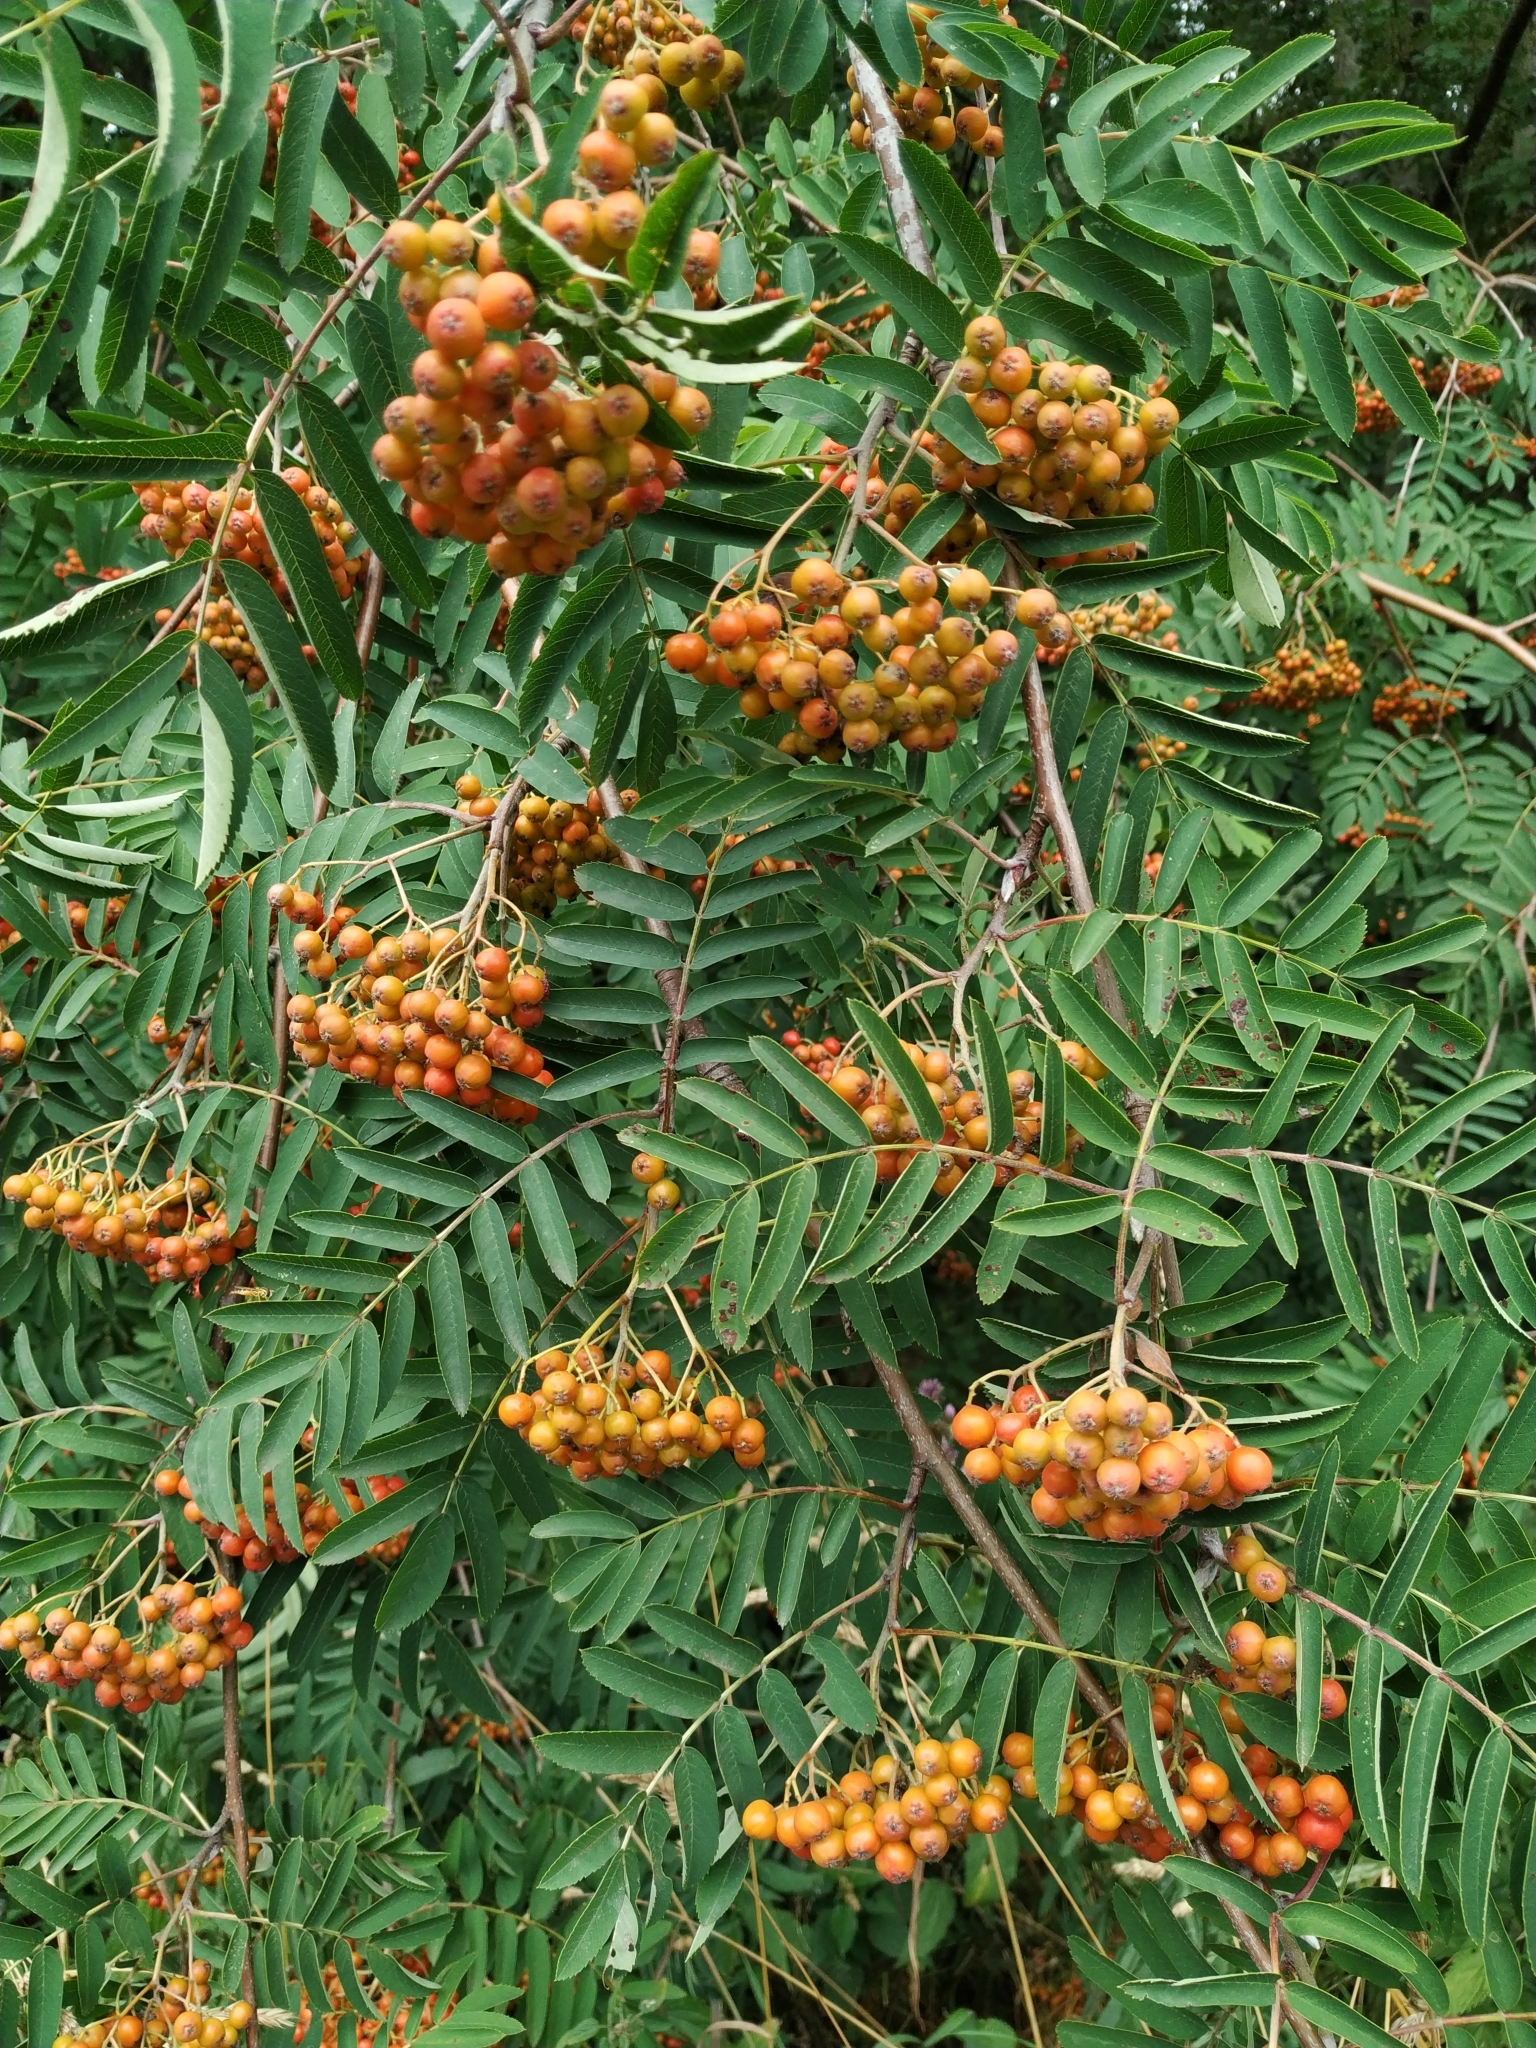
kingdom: Plantae
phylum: Tracheophyta
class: Magnoliopsida
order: Rosales
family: Rosaceae
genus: Sorbus
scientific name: Sorbus aucuparia
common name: Rowan
